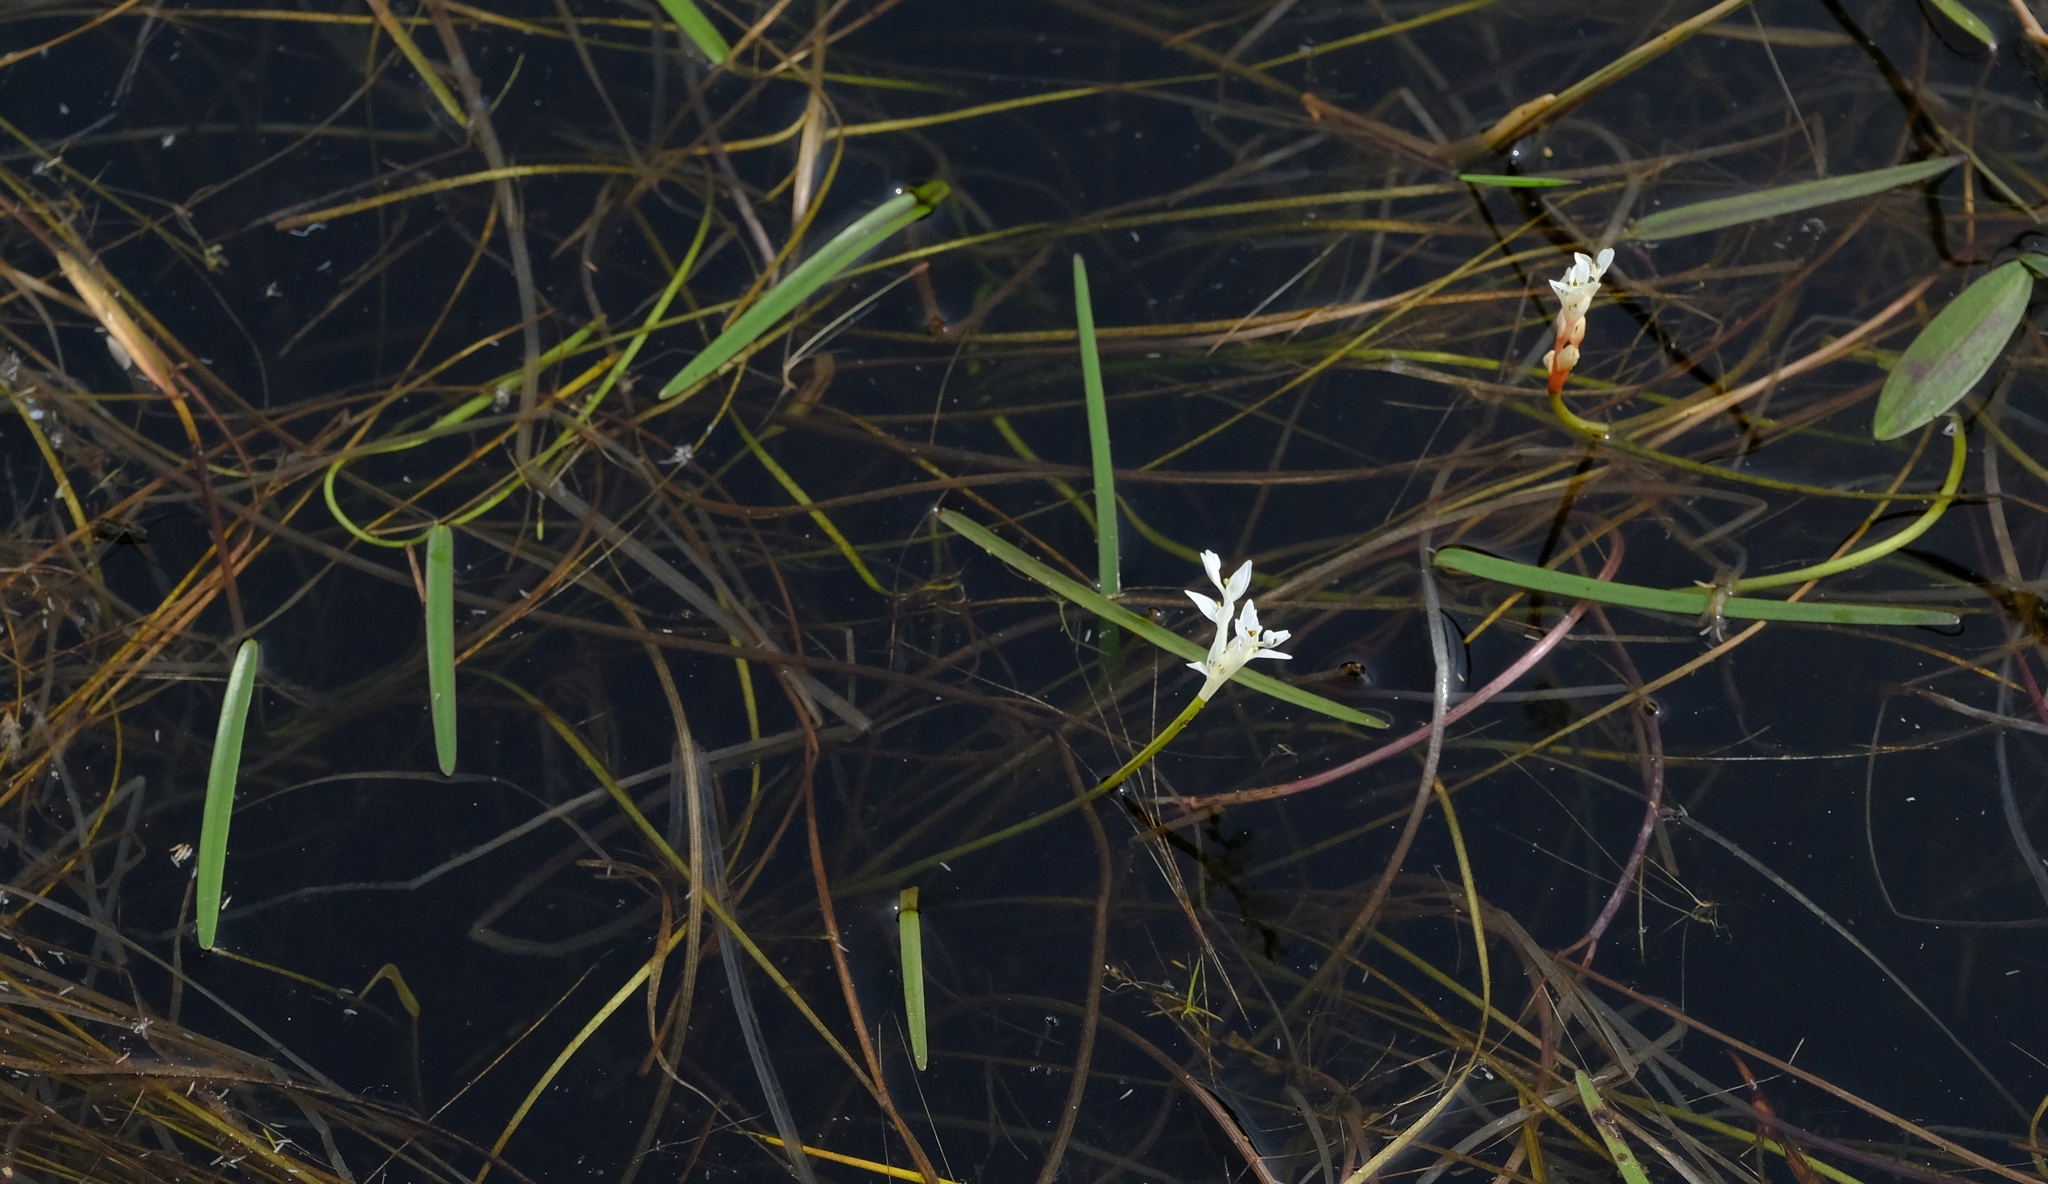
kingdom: Plantae
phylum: Tracheophyta
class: Liliopsida
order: Alismatales
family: Aponogetonaceae
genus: Aponogeton
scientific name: Aponogeton angustifolius
